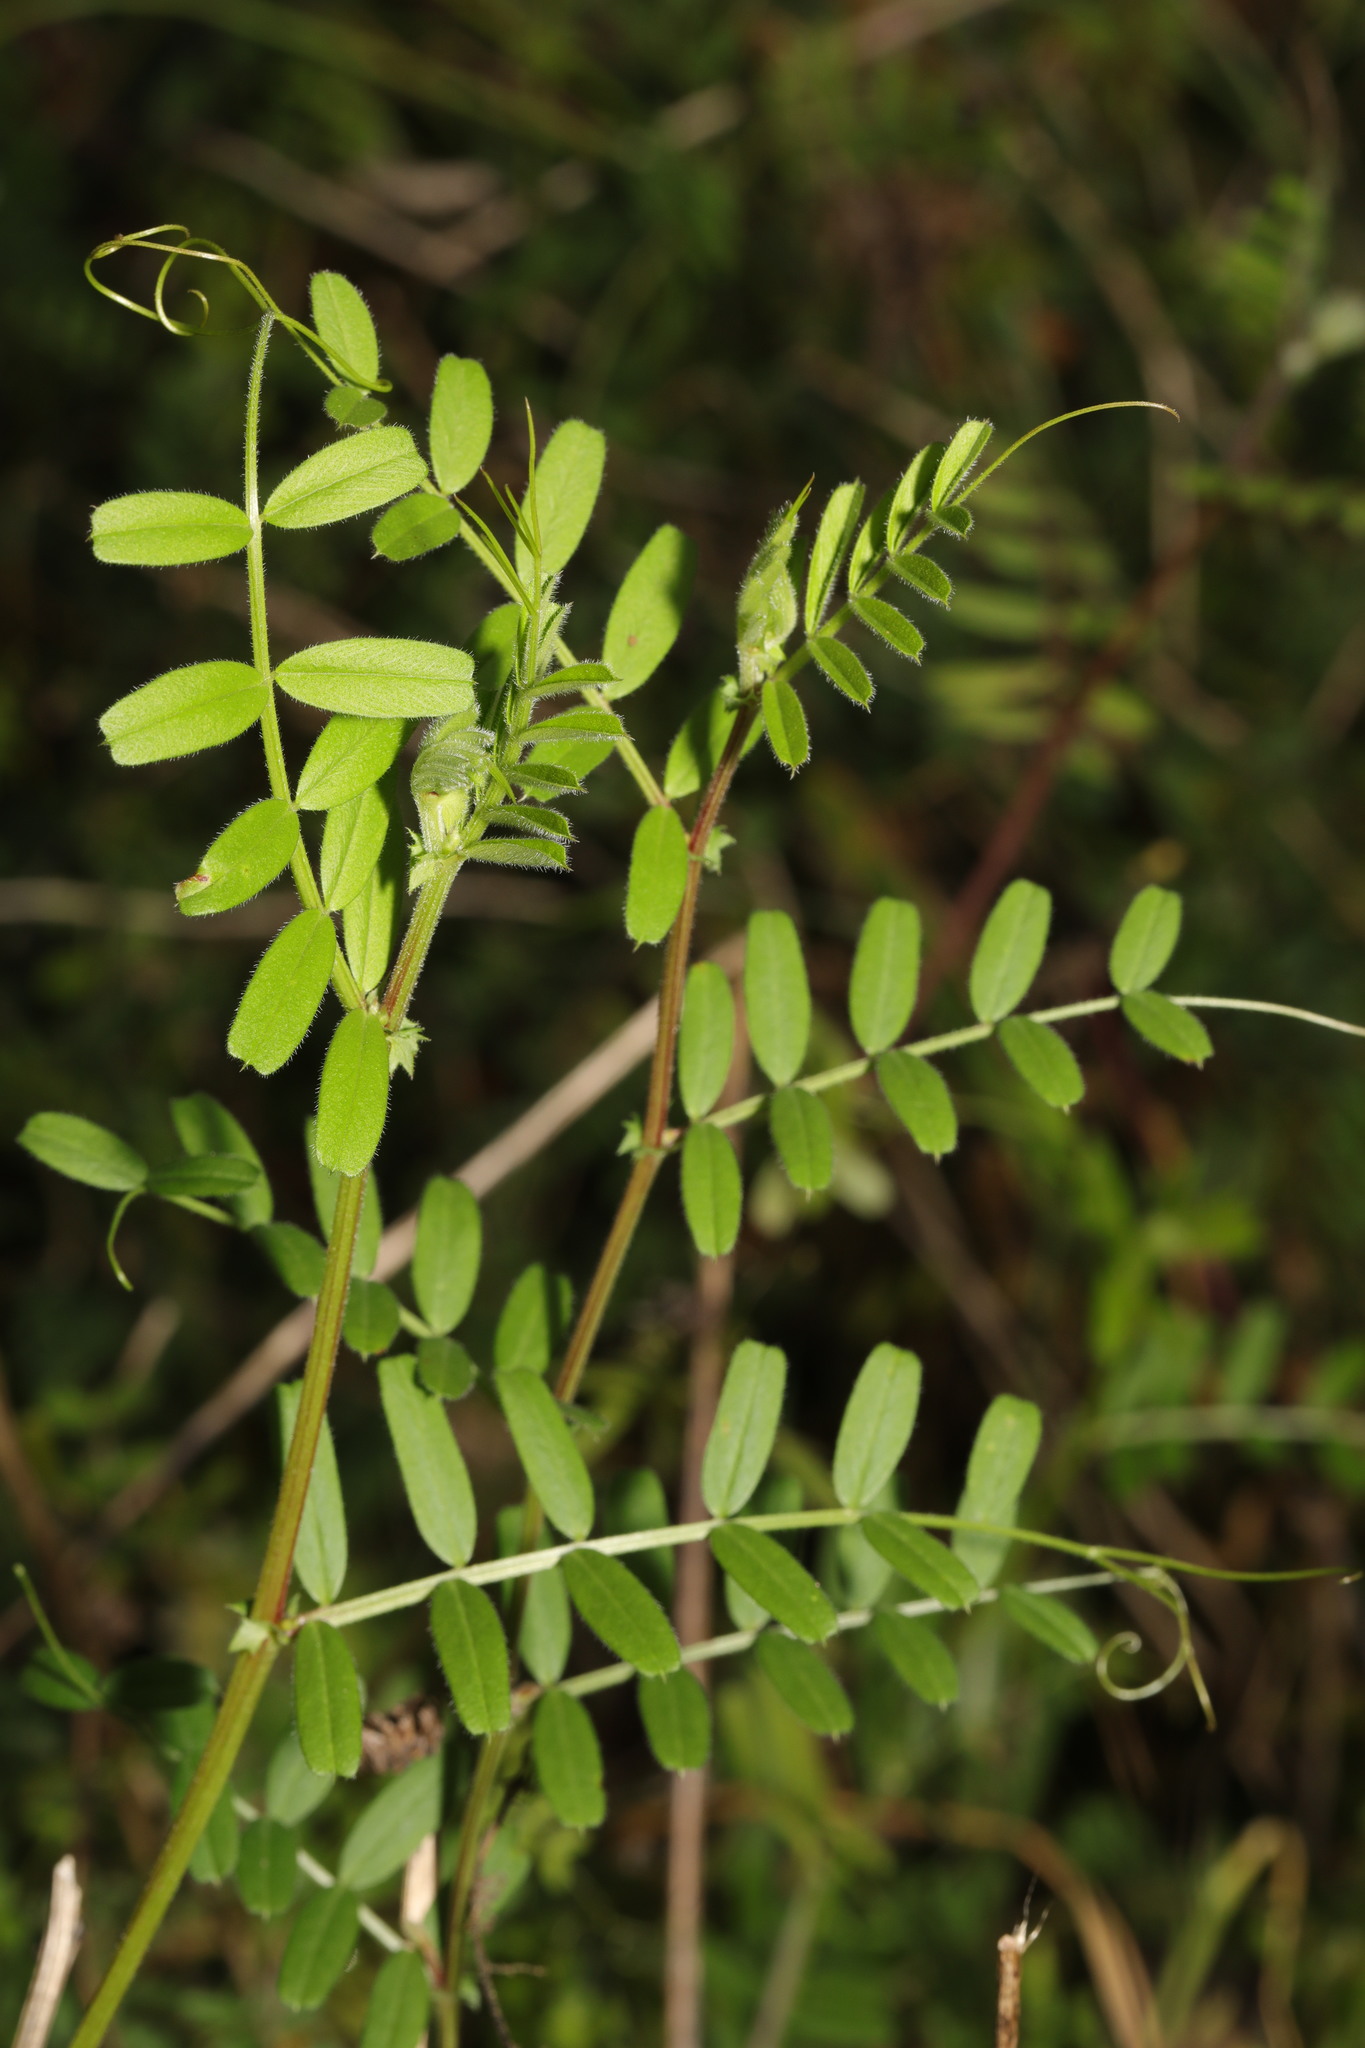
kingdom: Plantae
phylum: Tracheophyta
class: Magnoliopsida
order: Fabales
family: Fabaceae
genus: Vicia
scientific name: Vicia sativa
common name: Garden vetch
